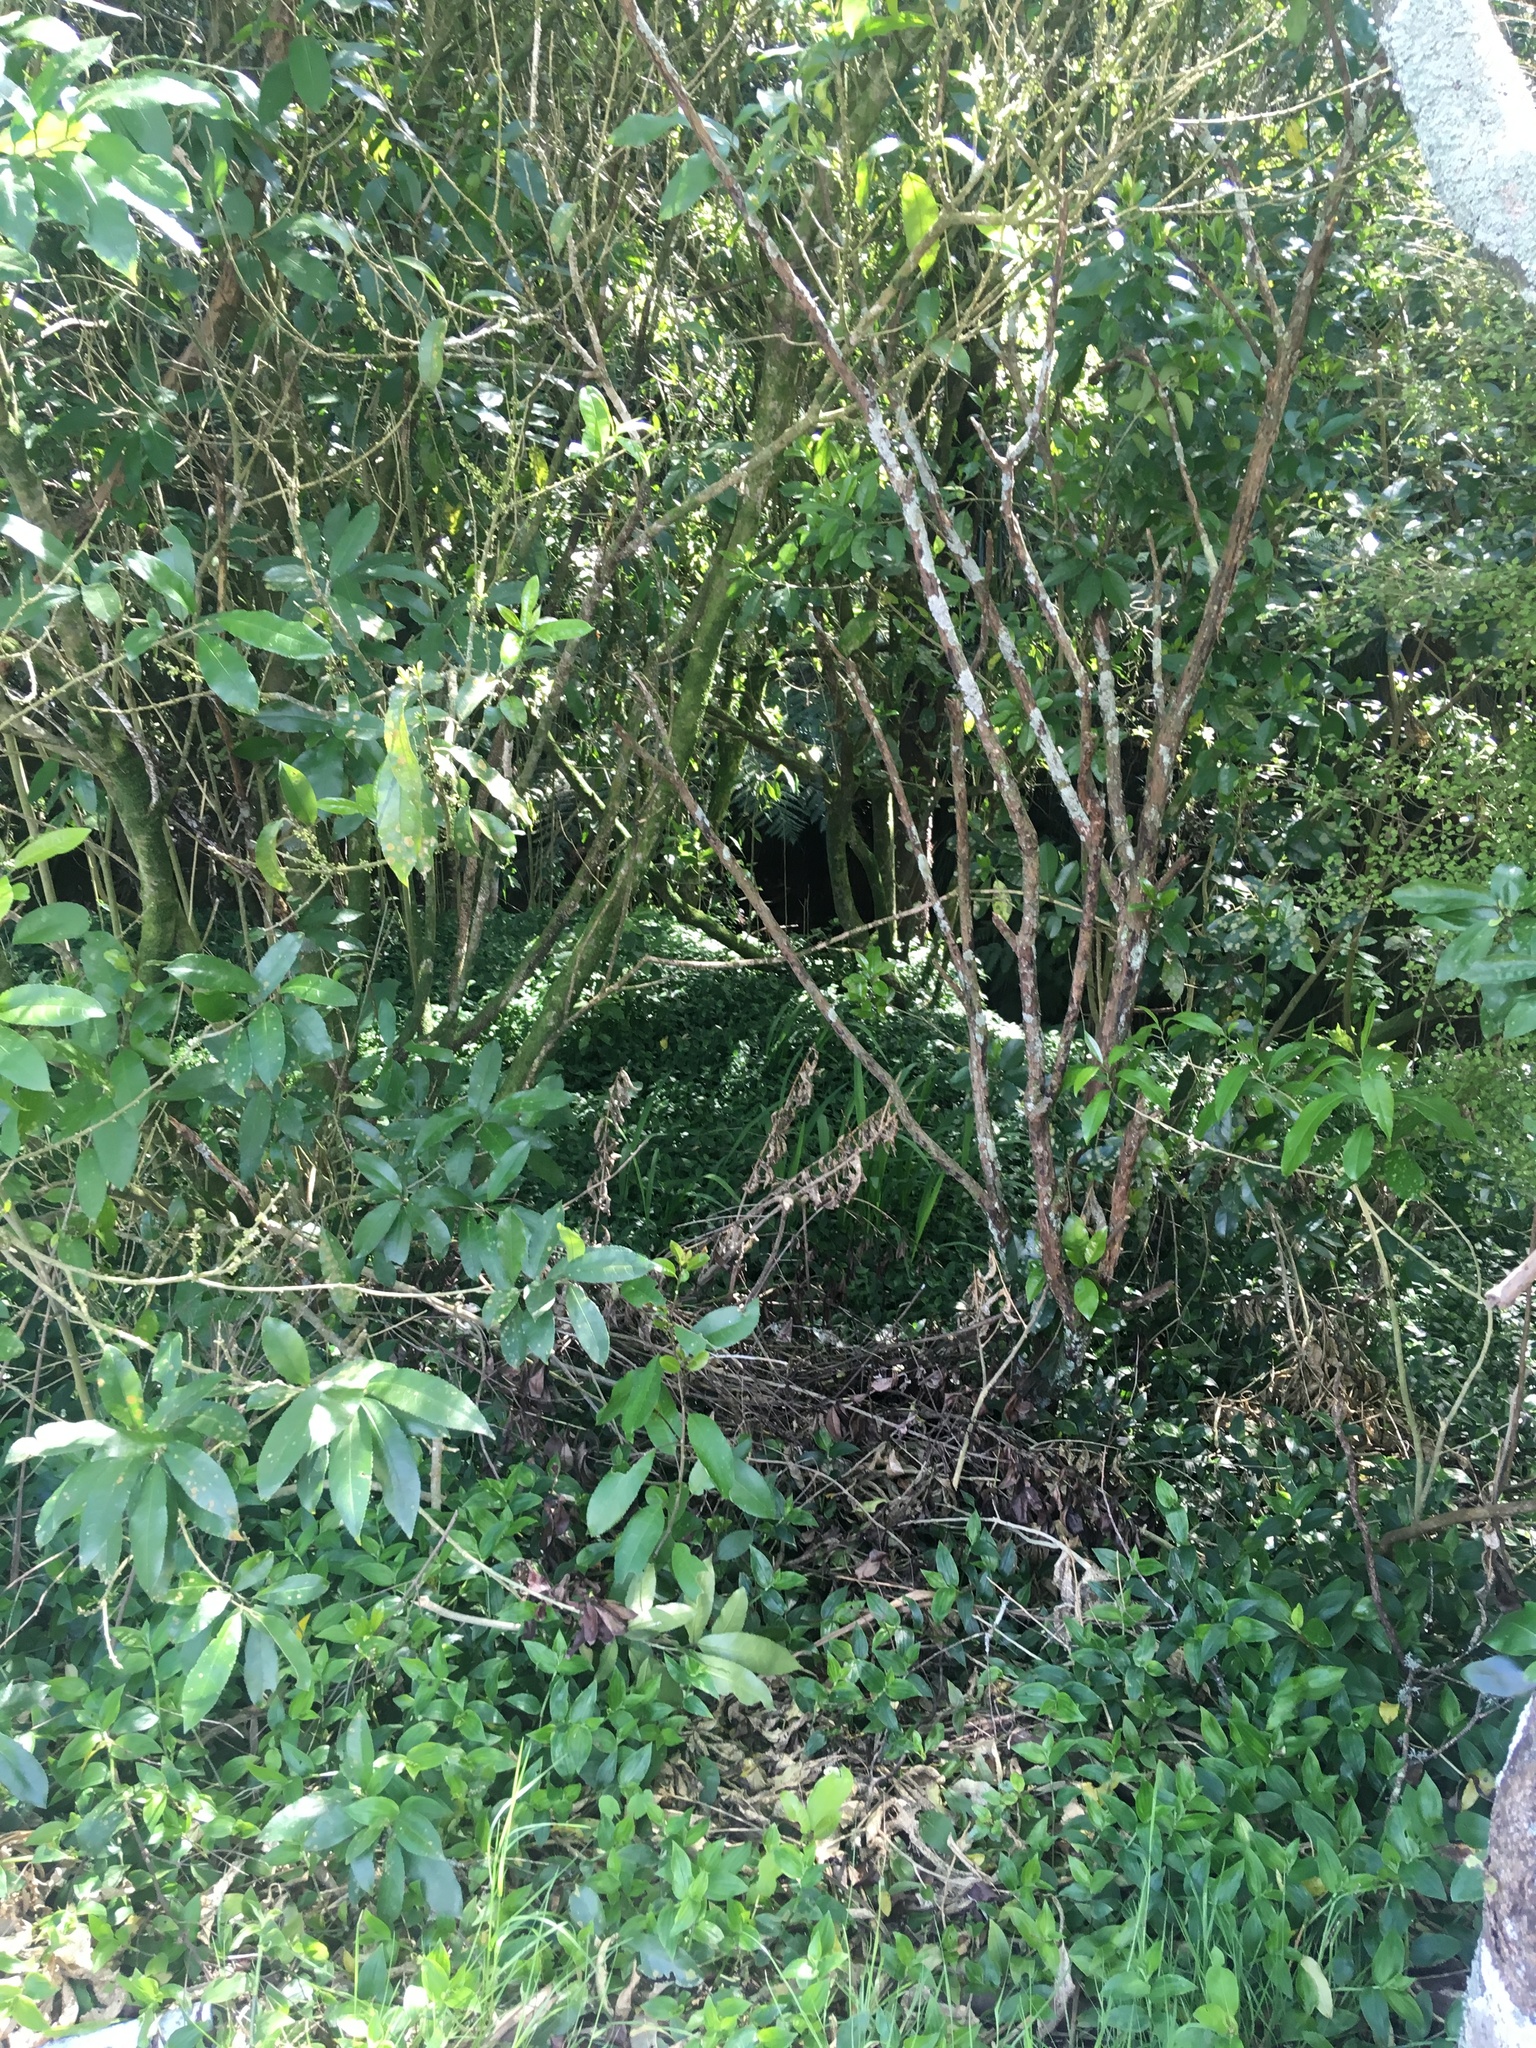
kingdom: Plantae
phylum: Tracheophyta
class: Magnoliopsida
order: Malpighiales
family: Violaceae
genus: Melicytus
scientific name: Melicytus ramiflorus
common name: Mahoe
